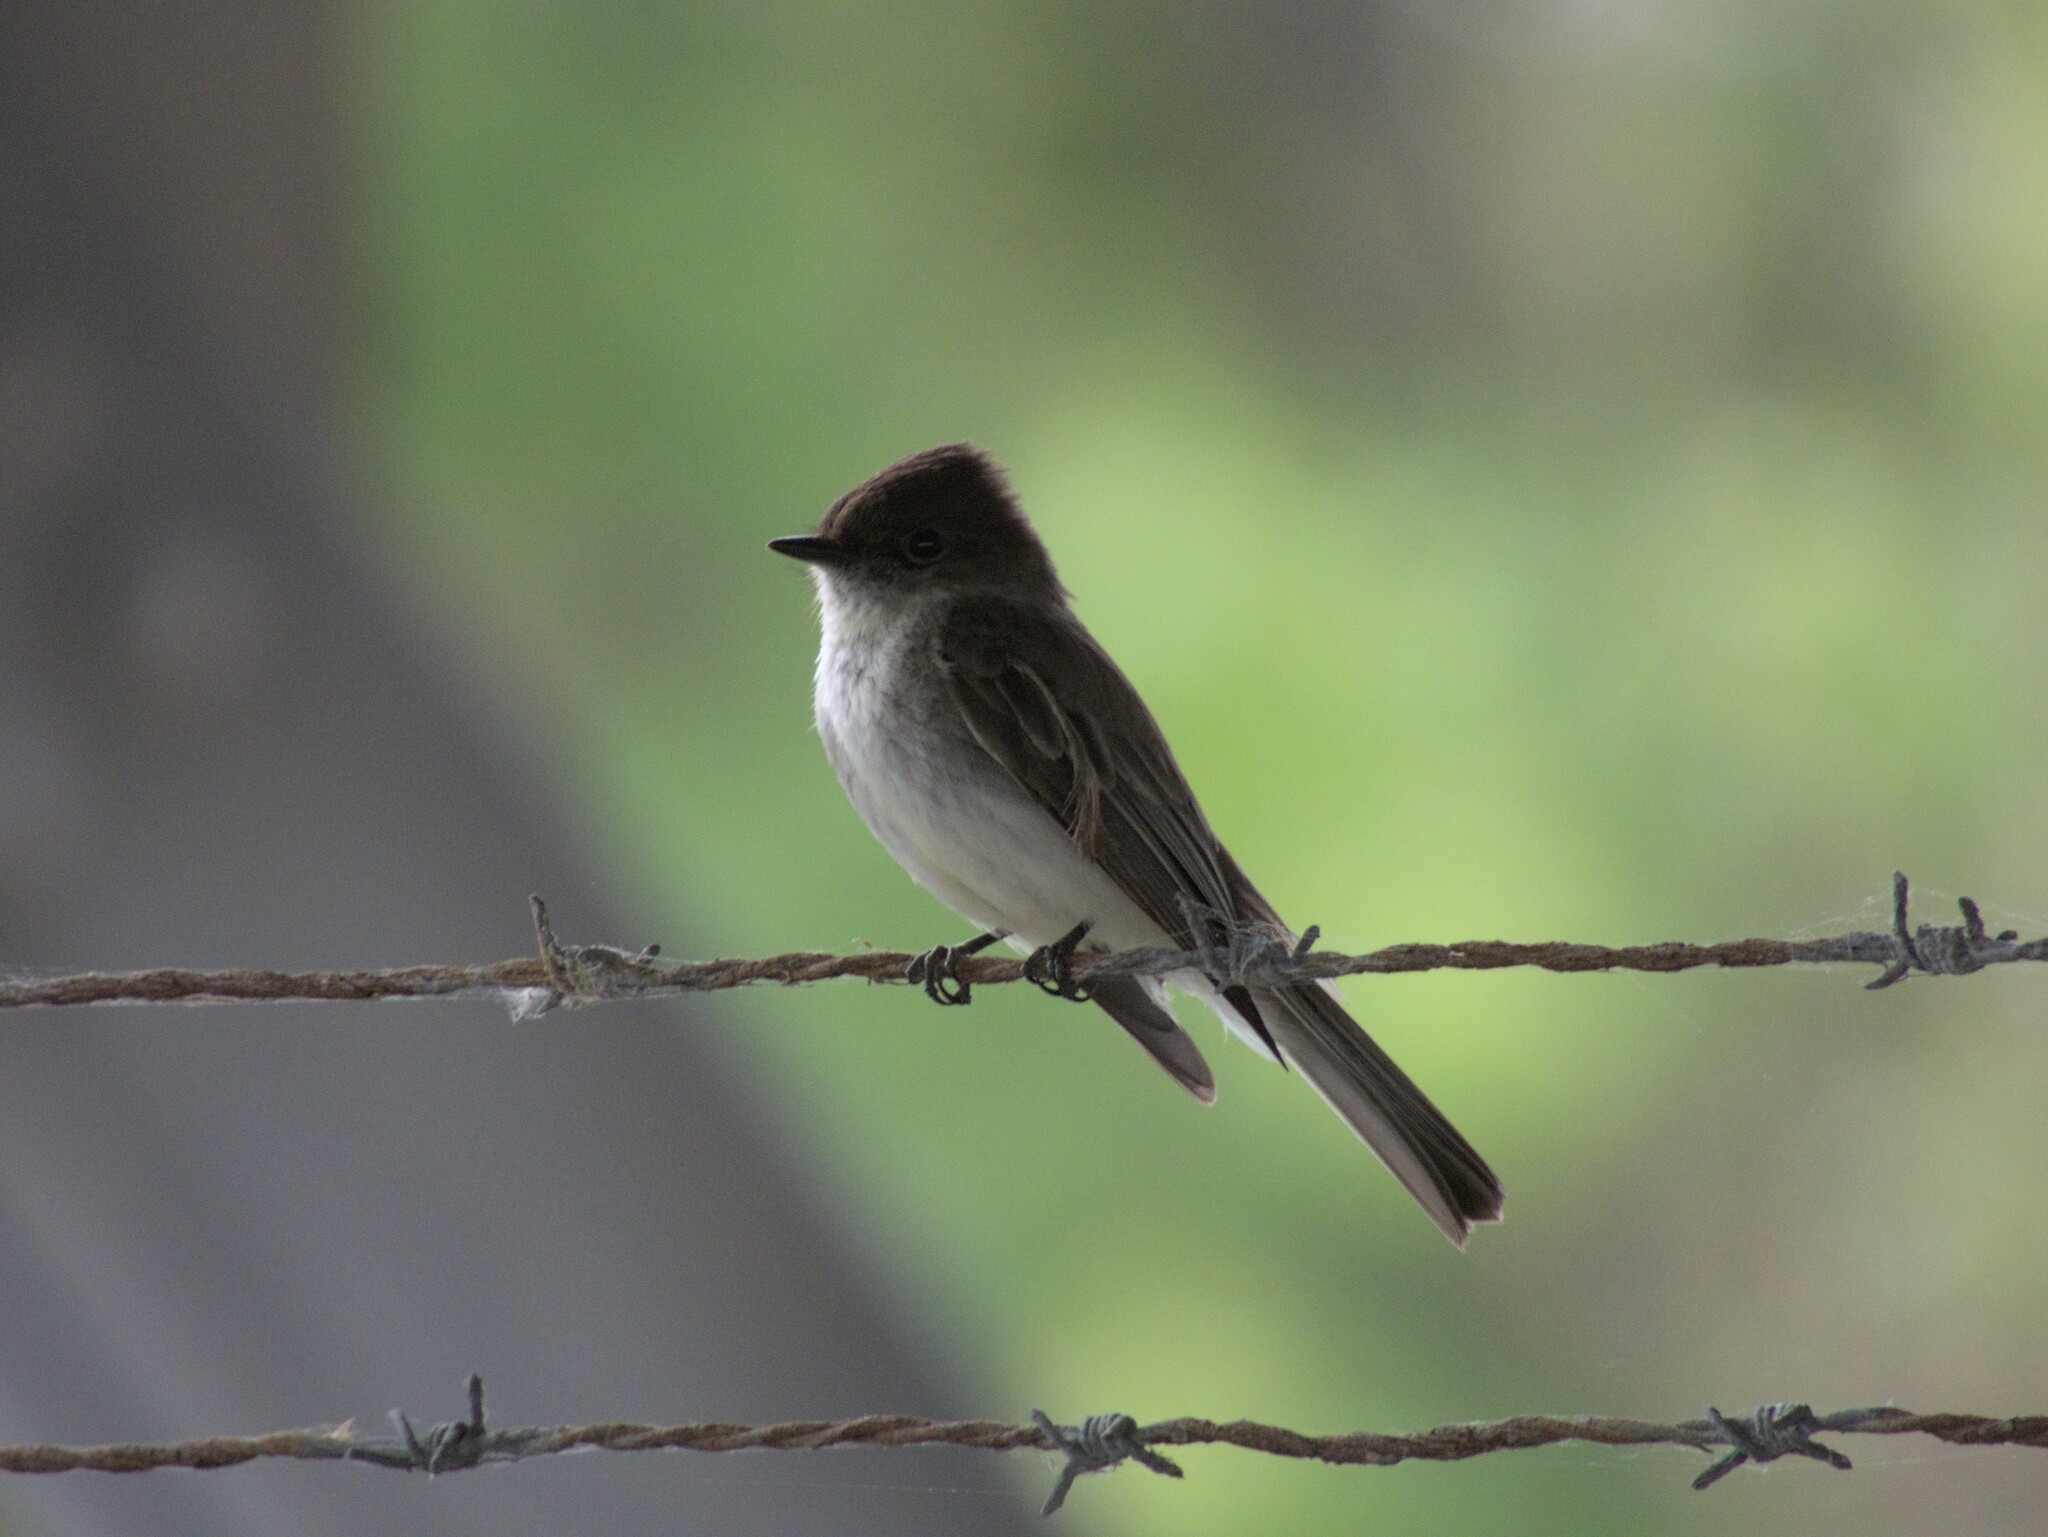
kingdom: Animalia
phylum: Chordata
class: Aves
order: Passeriformes
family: Tyrannidae
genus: Sayornis
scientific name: Sayornis phoebe
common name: Eastern phoebe
